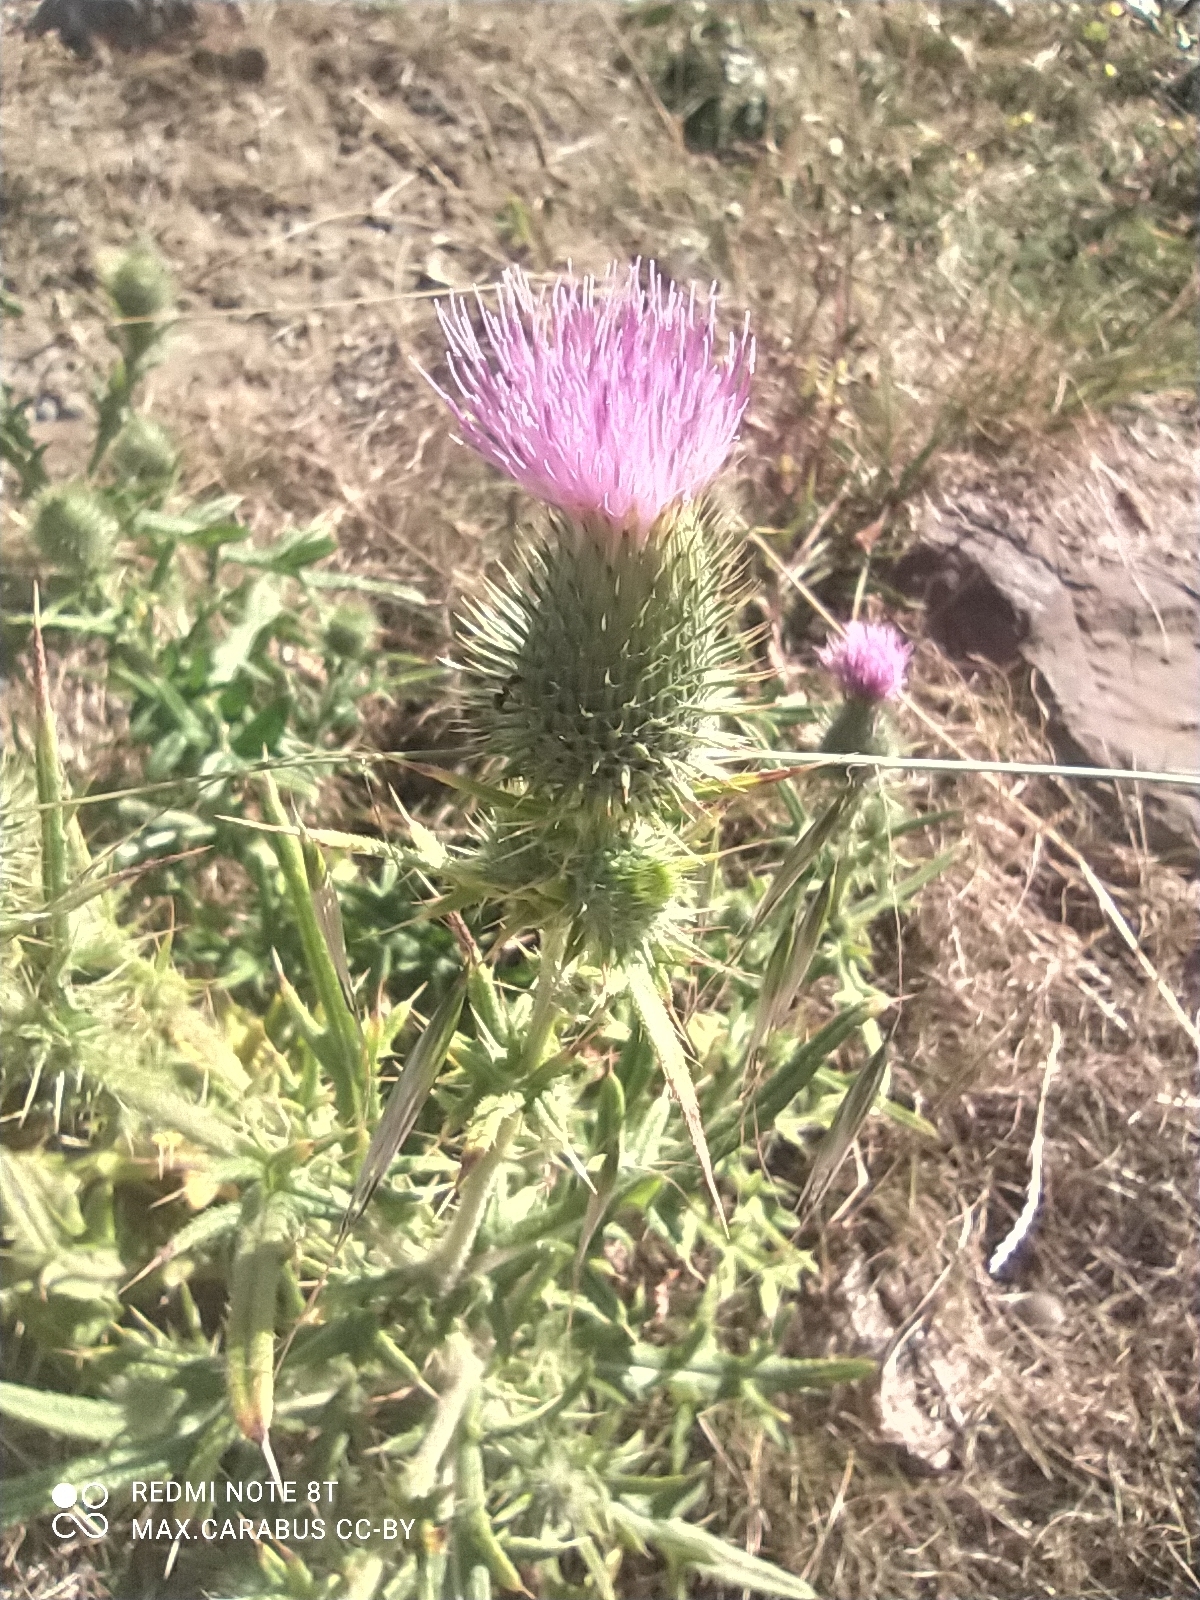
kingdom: Plantae
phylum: Tracheophyta
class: Magnoliopsida
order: Asterales
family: Asteraceae
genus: Cirsium
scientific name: Cirsium vulgare
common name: Bull thistle
